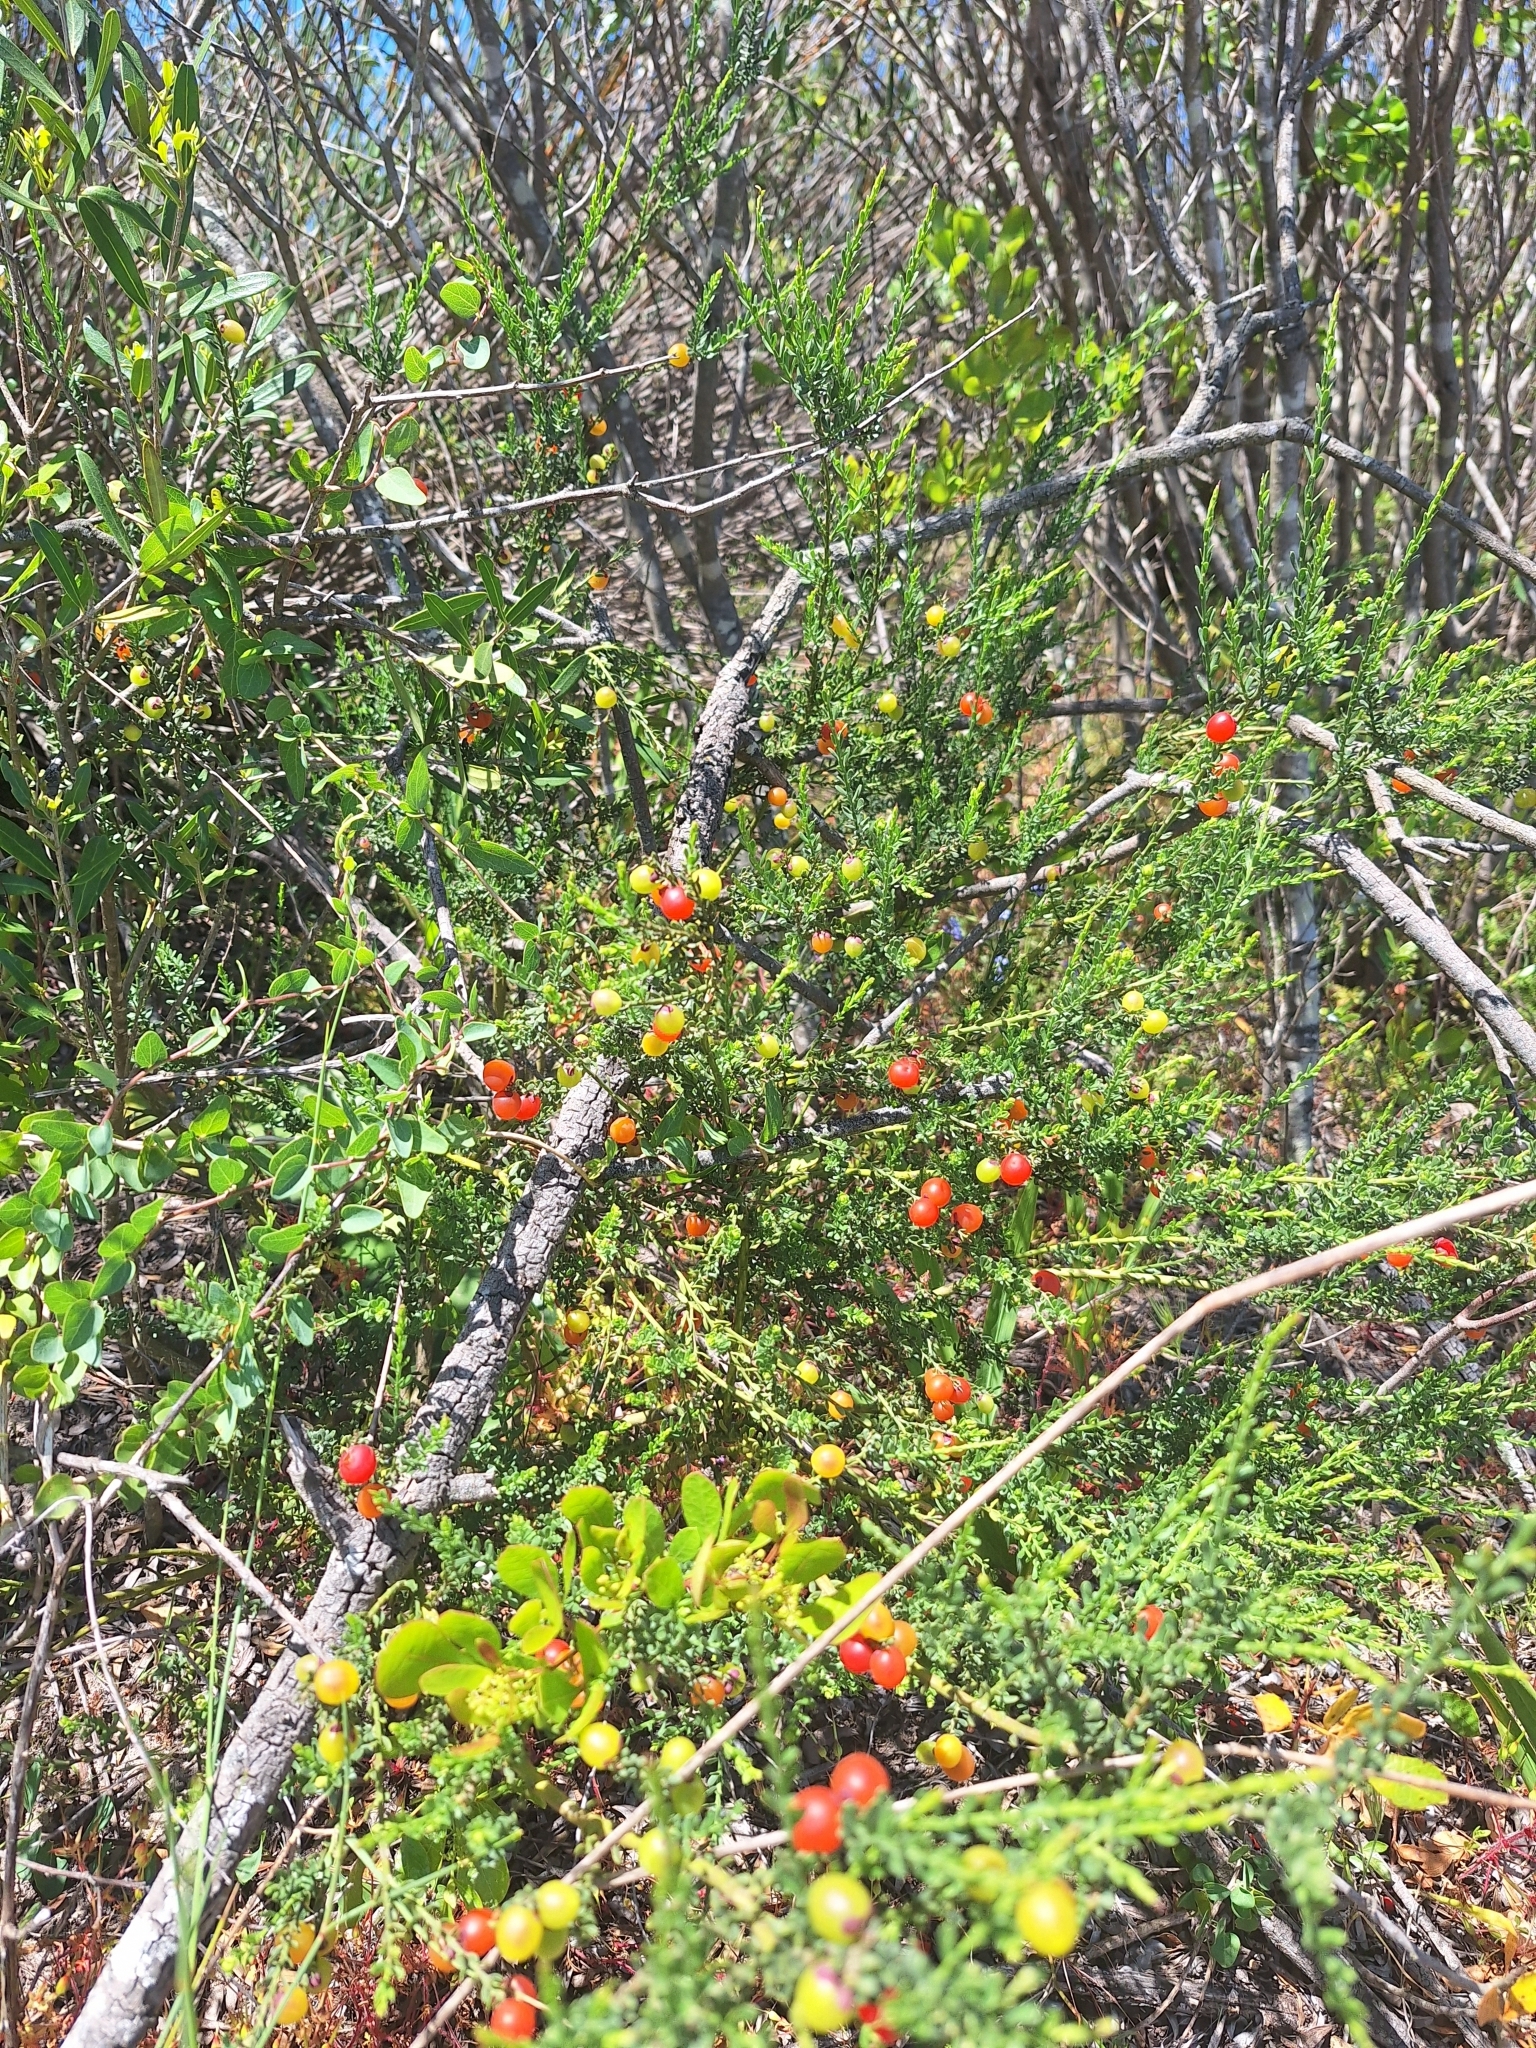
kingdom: Plantae
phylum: Tracheophyta
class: Magnoliopsida
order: Fabales
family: Polygalaceae
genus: Muraltia
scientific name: Muraltia spinosa
